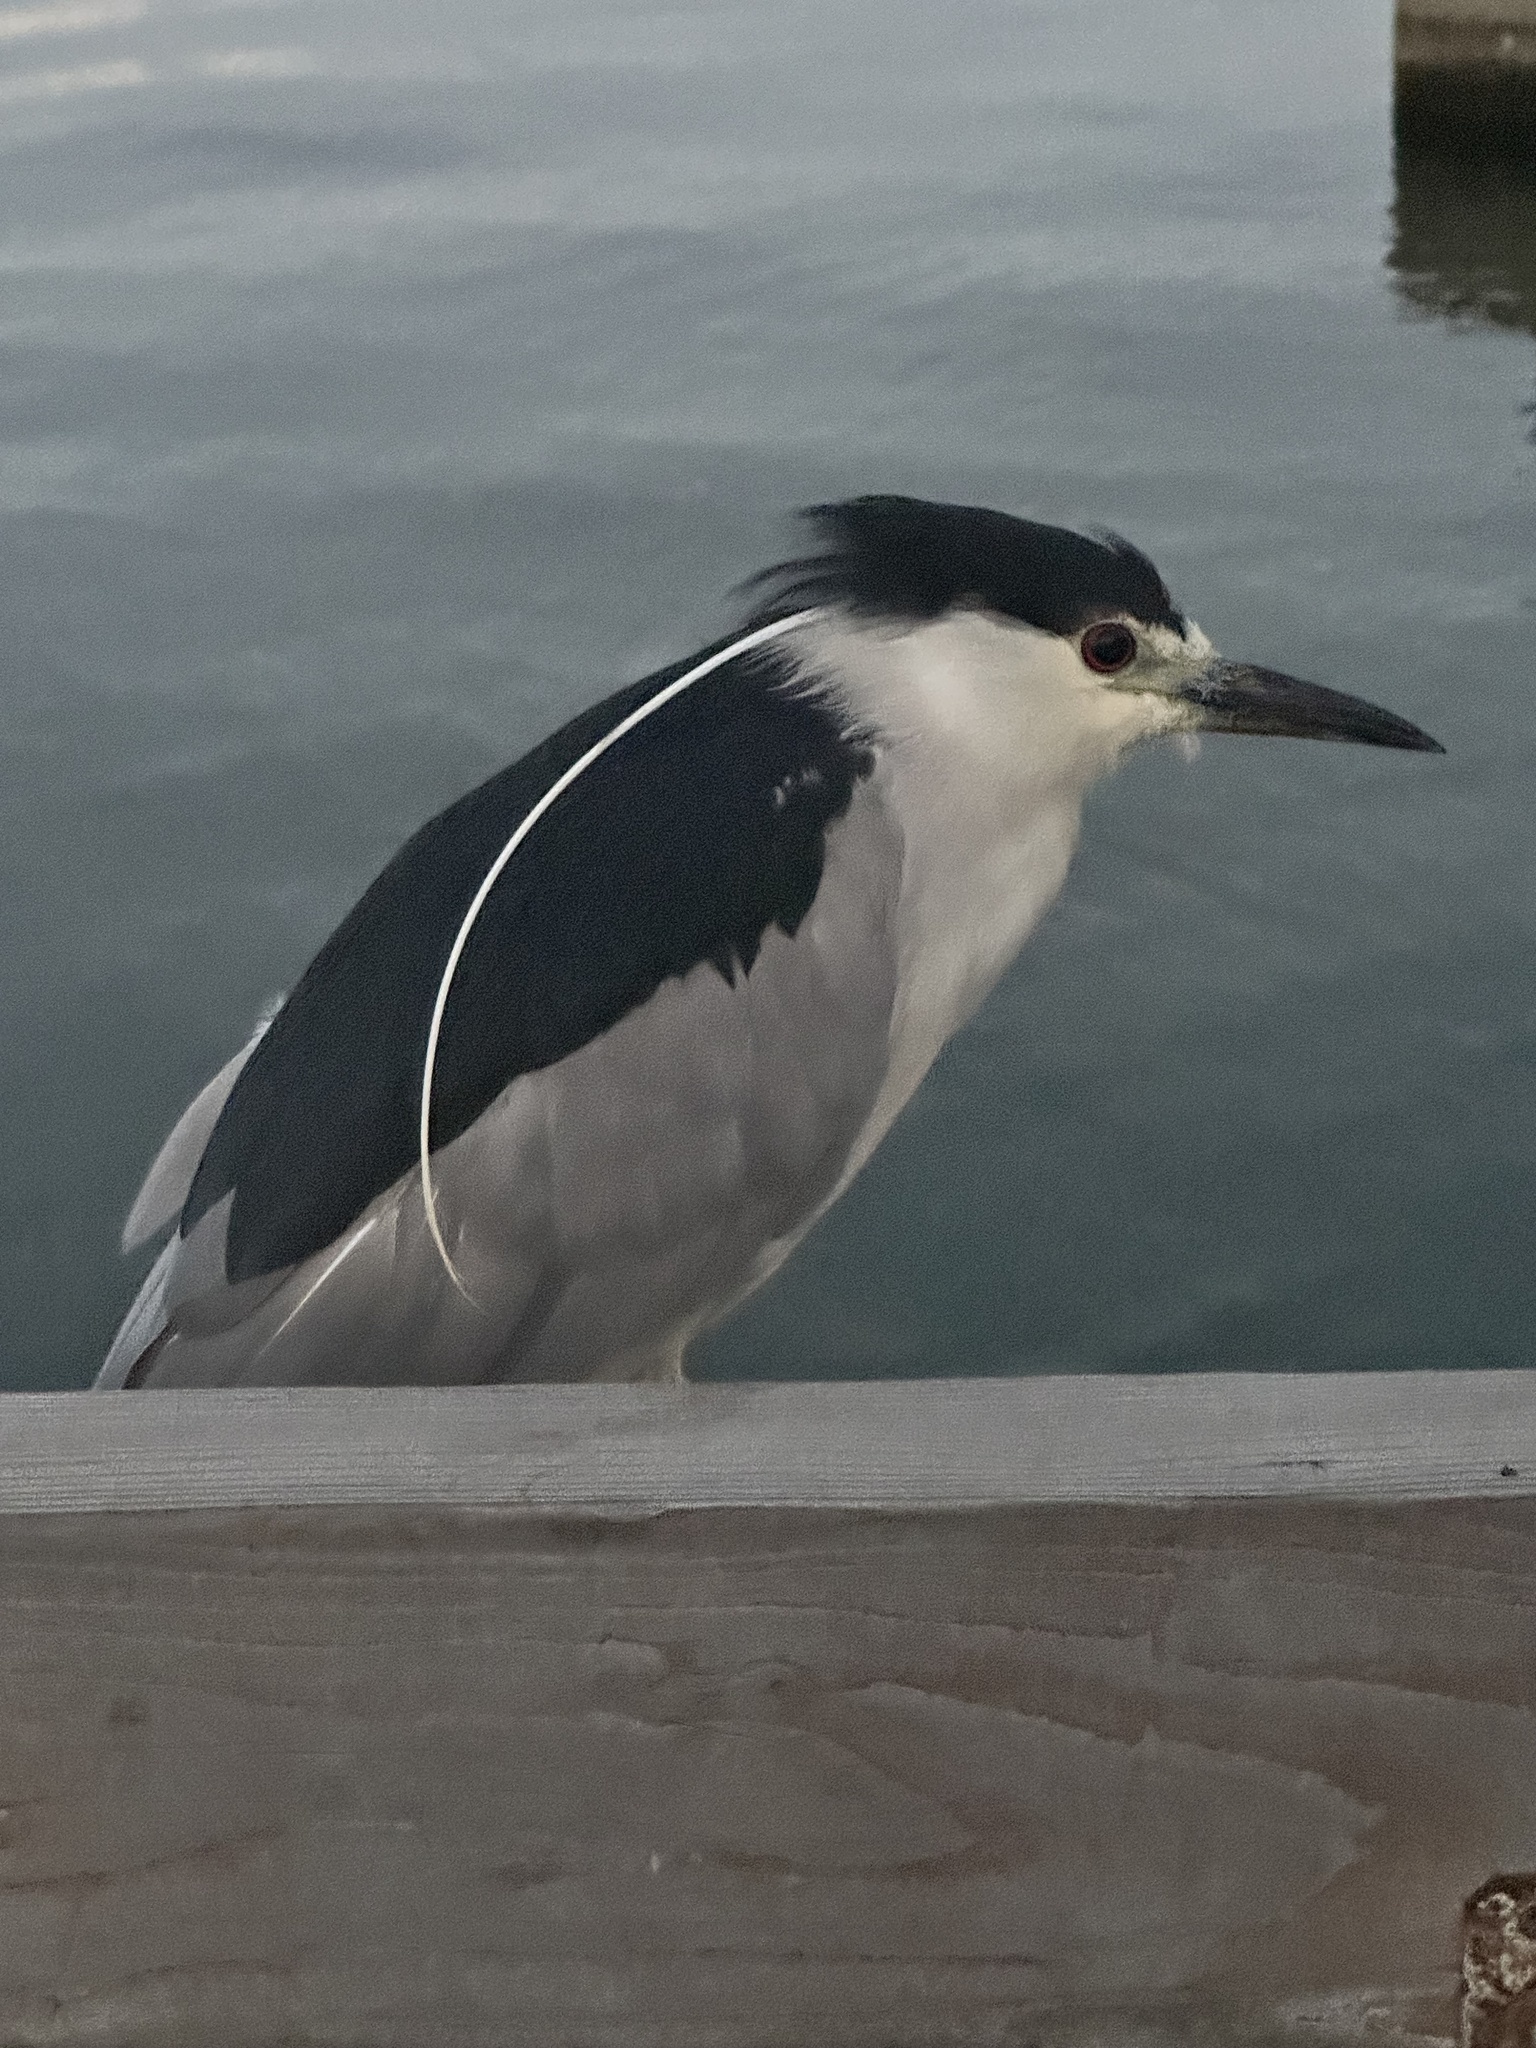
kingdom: Animalia
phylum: Chordata
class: Aves
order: Pelecaniformes
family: Ardeidae
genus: Nycticorax
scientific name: Nycticorax nycticorax
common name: Black-crowned night heron
